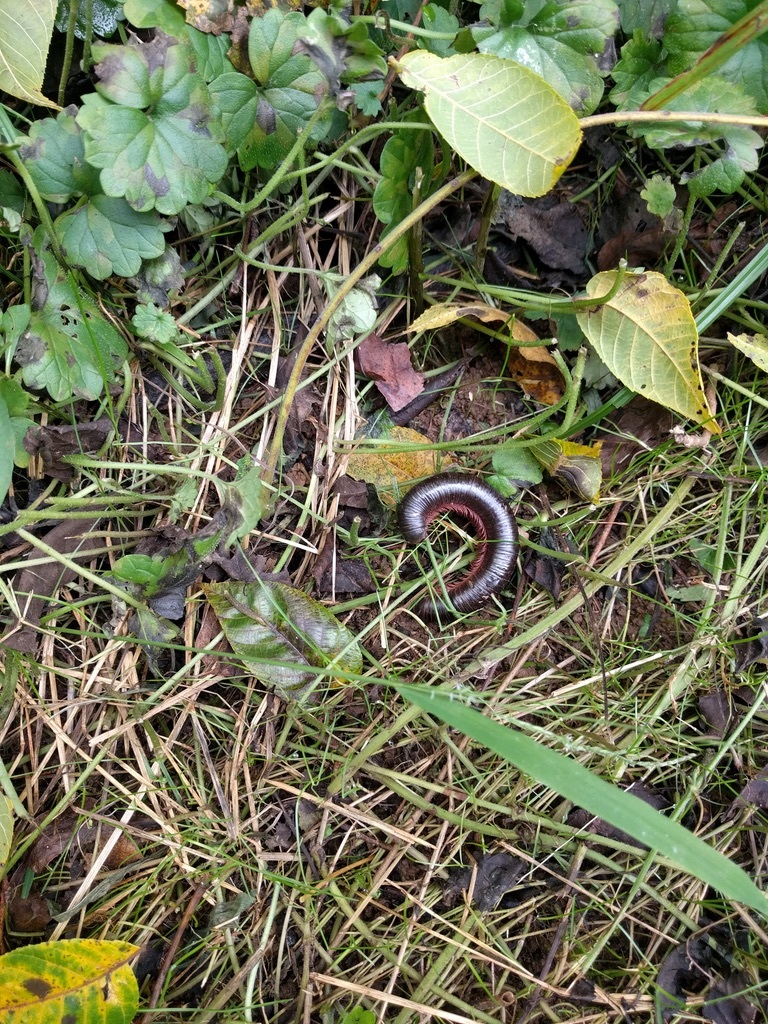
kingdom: Animalia
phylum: Arthropoda
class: Diplopoda
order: Spirobolida
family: Spirobolidae
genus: Narceus
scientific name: Narceus
